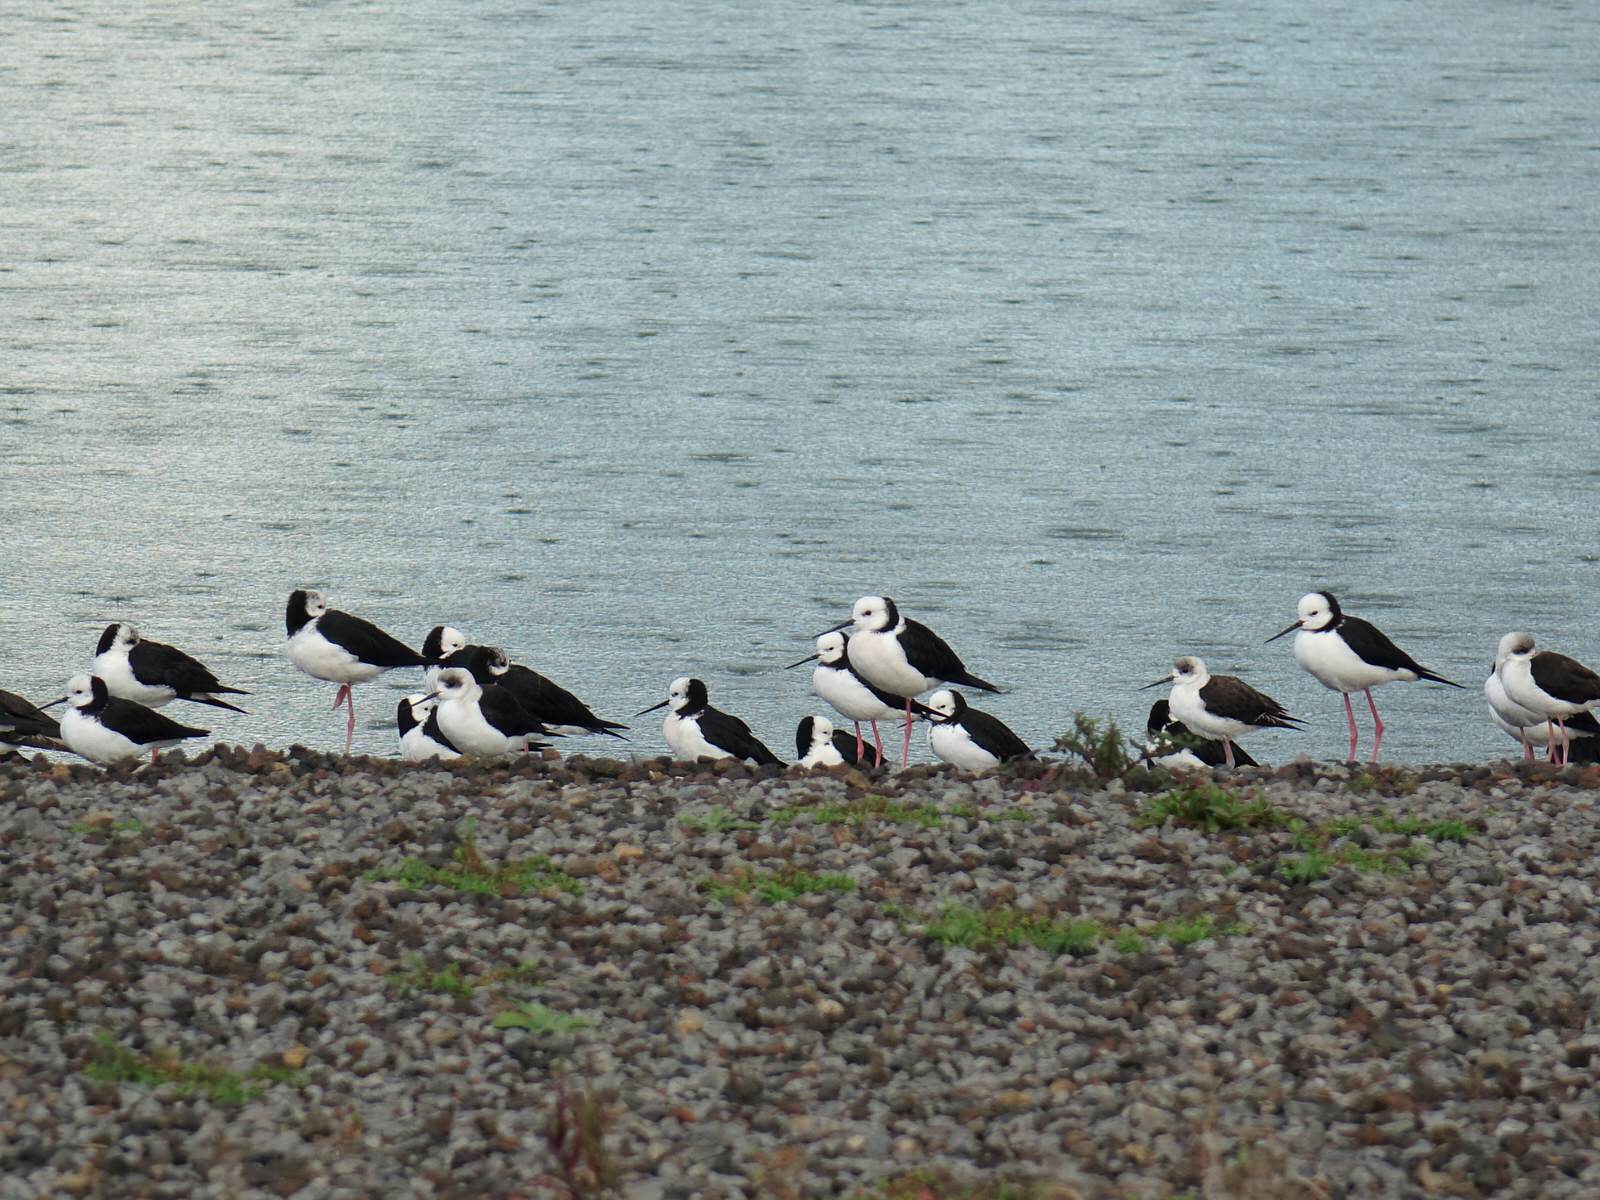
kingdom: Animalia
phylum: Chordata
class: Aves
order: Charadriiformes
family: Recurvirostridae
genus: Himantopus
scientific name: Himantopus leucocephalus
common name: White-headed stilt
